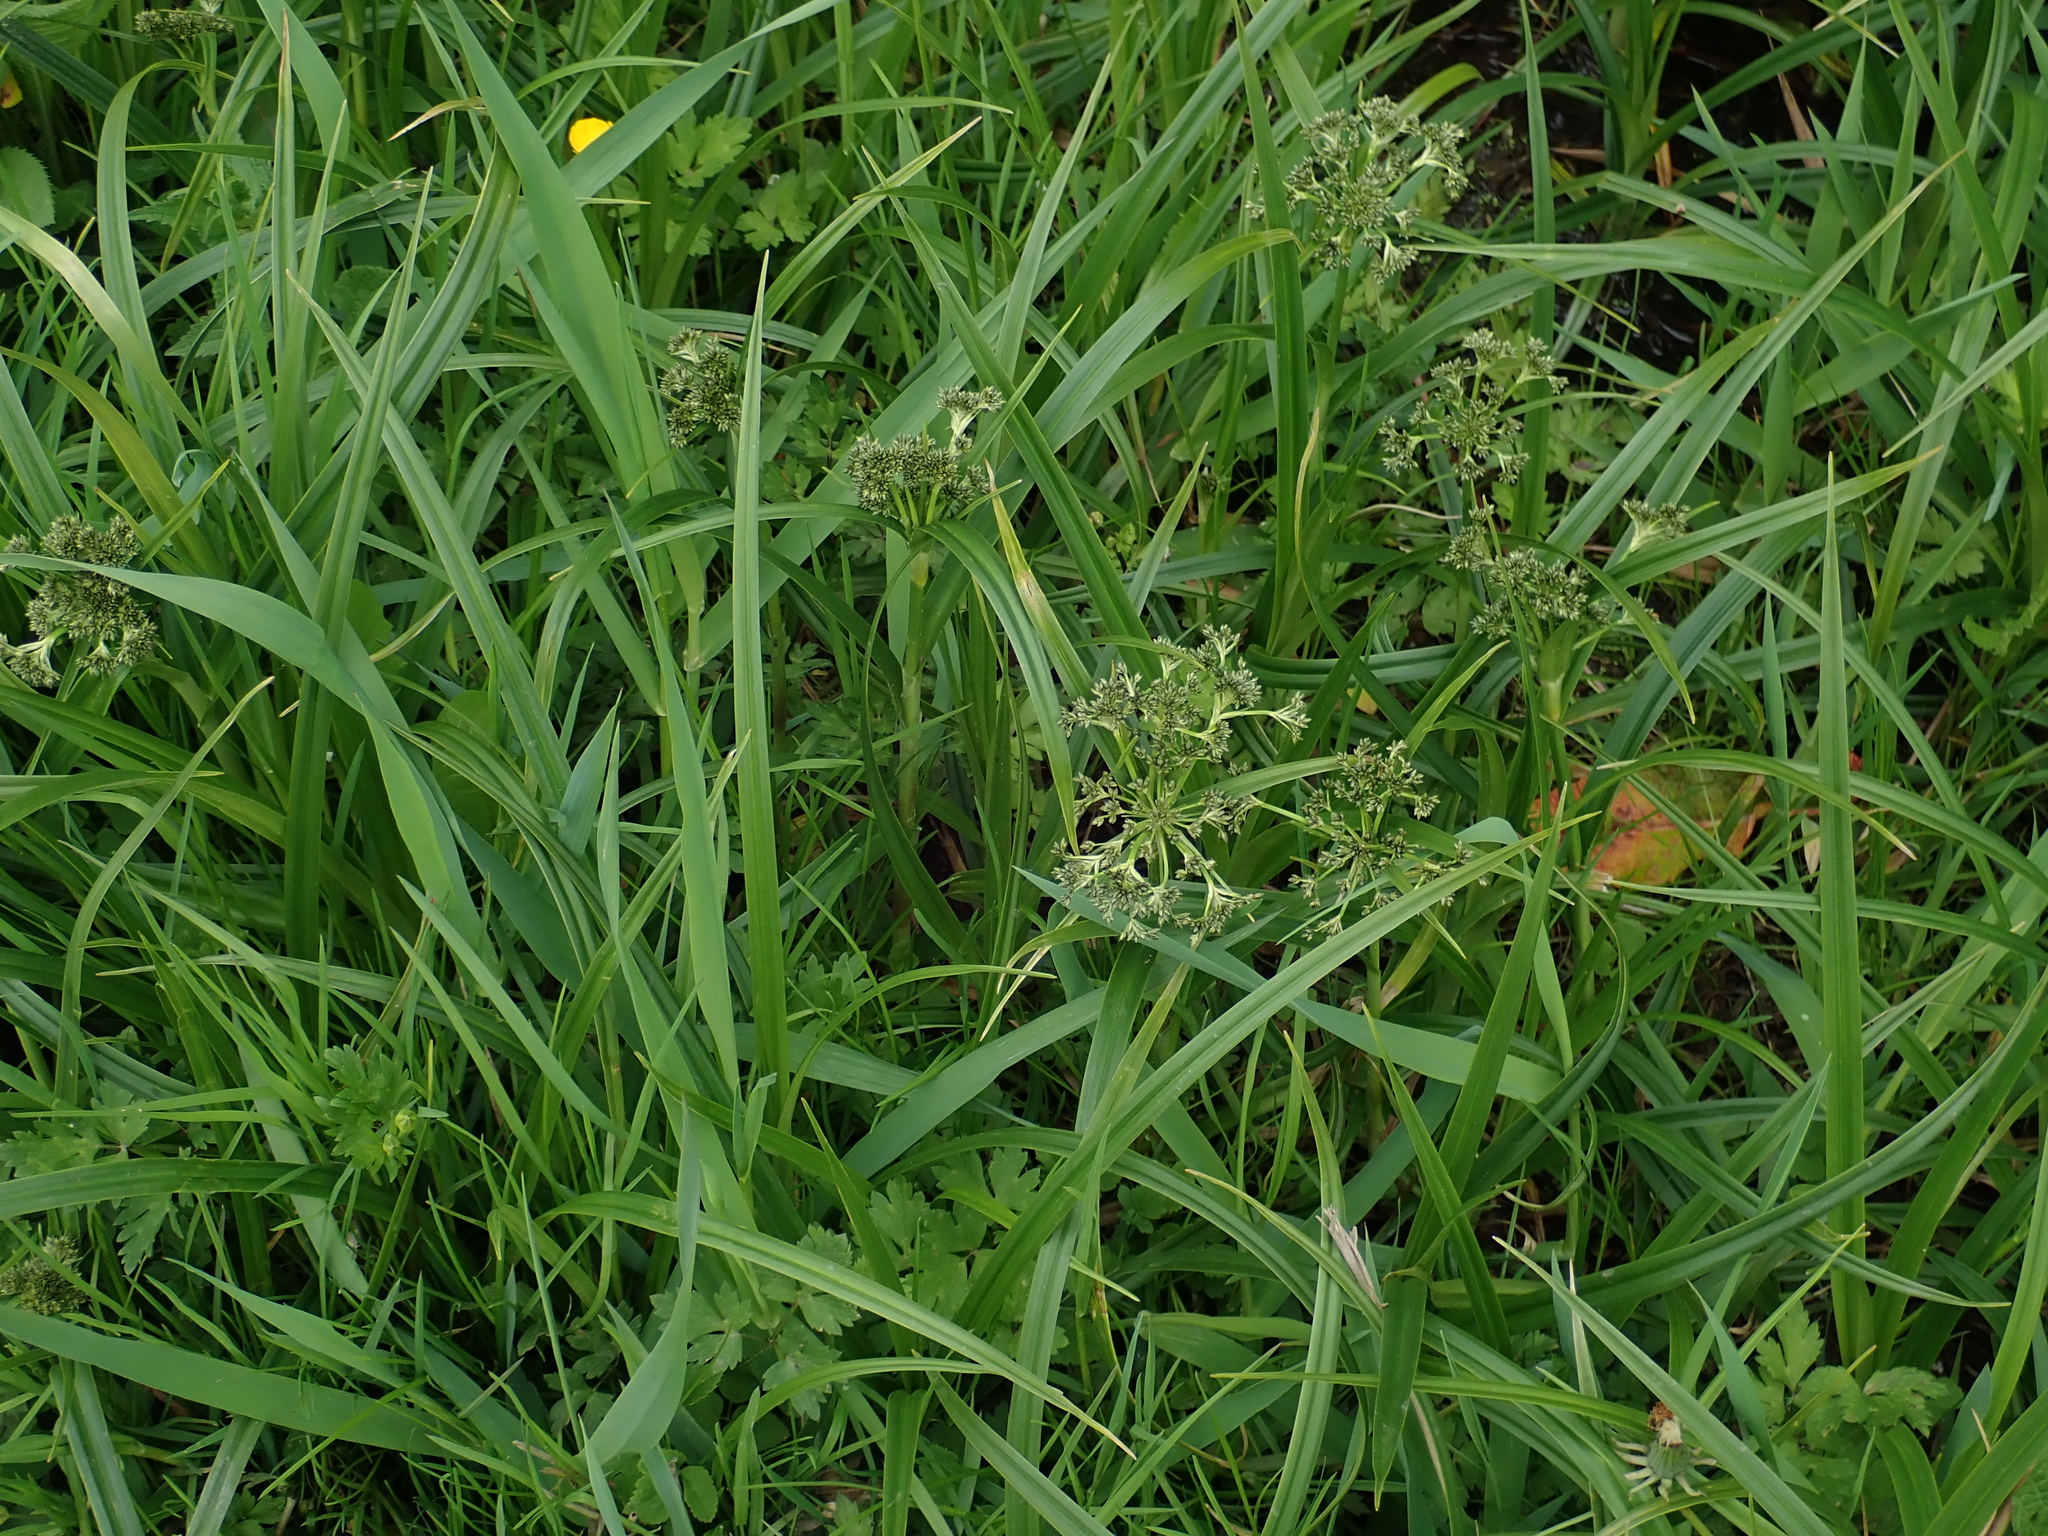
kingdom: Plantae
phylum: Tracheophyta
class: Liliopsida
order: Poales
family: Cyperaceae
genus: Scirpus
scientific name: Scirpus sylvaticus
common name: Wood club-rush
